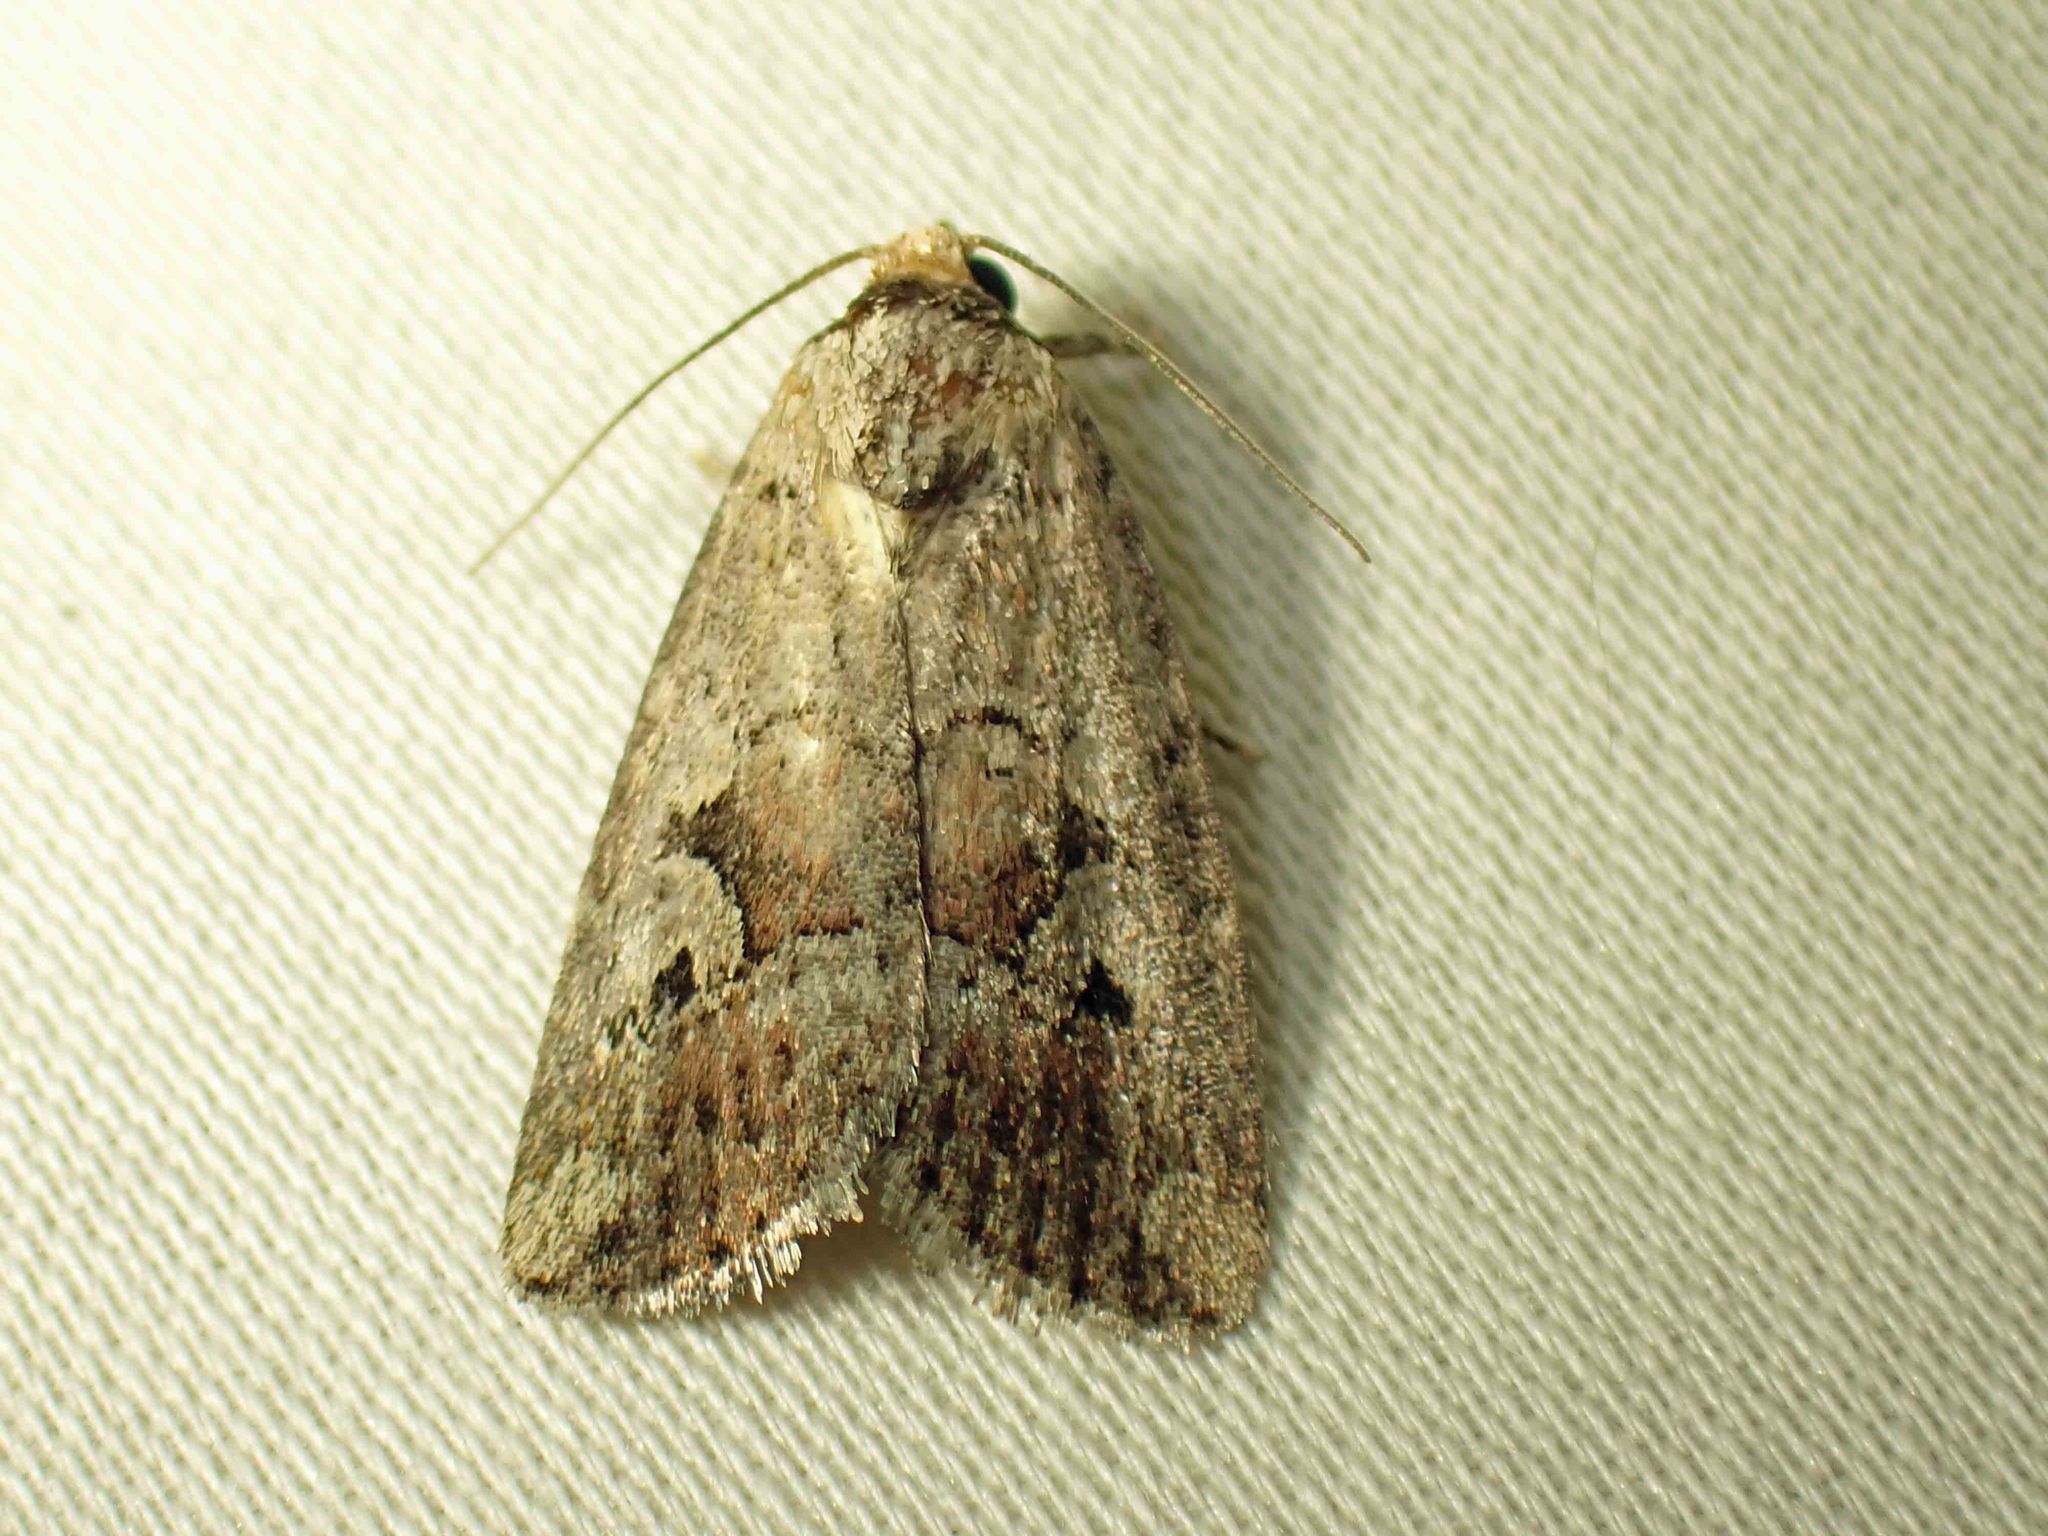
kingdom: Animalia
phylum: Arthropoda
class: Insecta
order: Lepidoptera
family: Noctuidae
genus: Elaphria
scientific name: Elaphria alapallida
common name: Pale-winged midget
